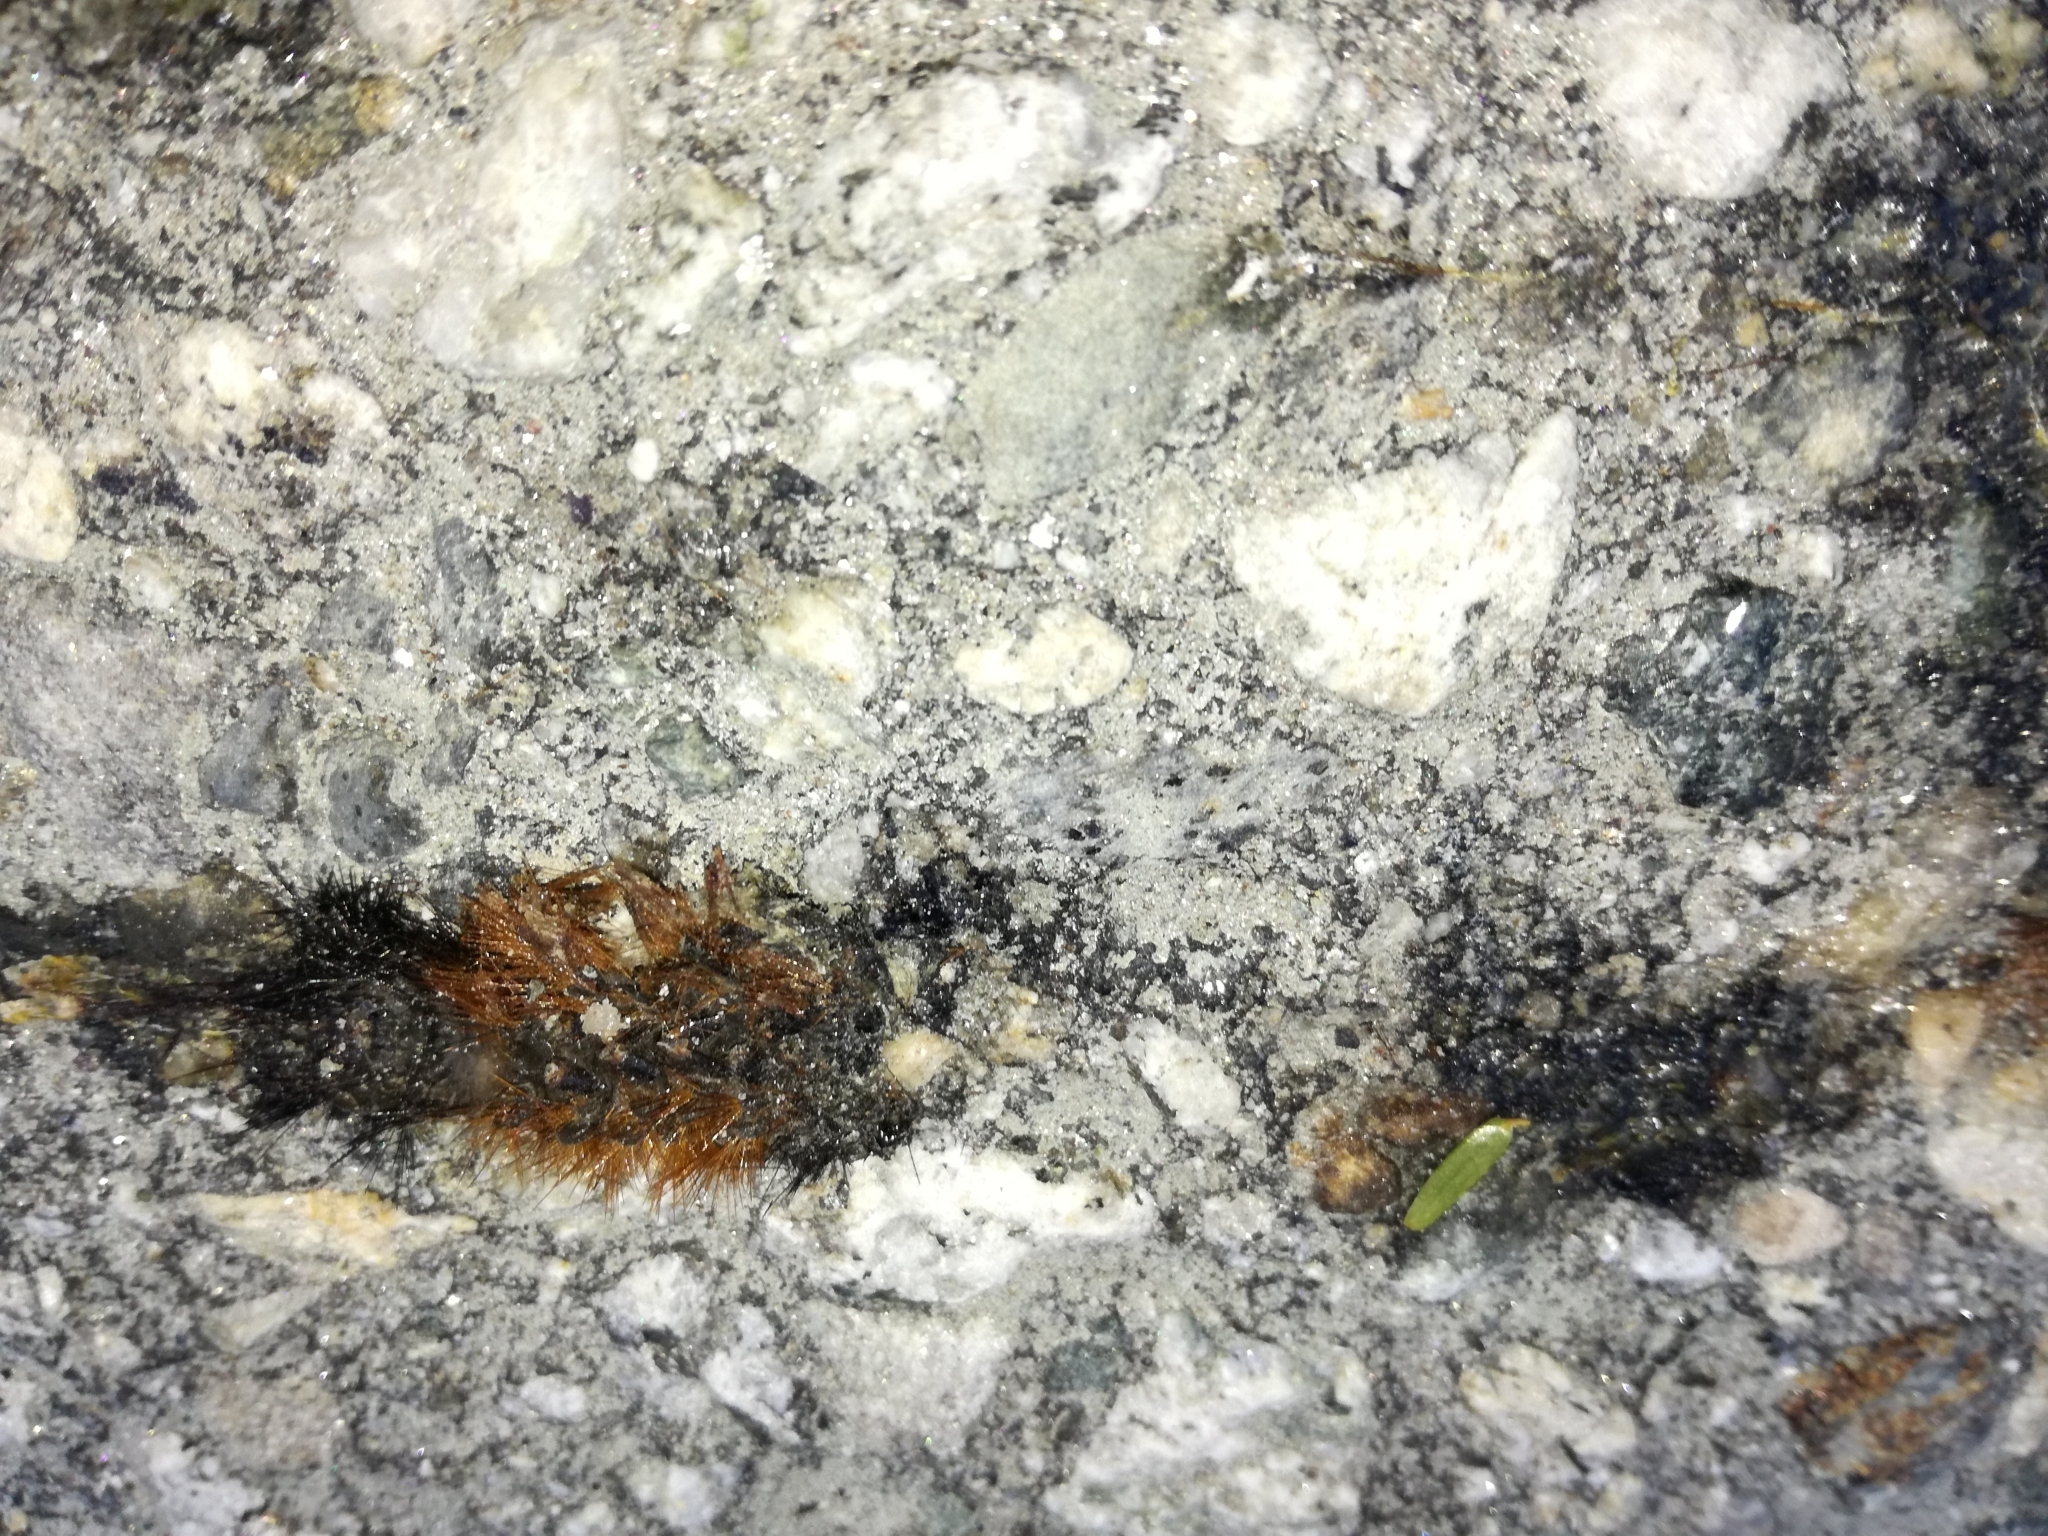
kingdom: Animalia
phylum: Arthropoda
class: Insecta
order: Lepidoptera
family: Erebidae
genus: Pyrrharctia
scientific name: Pyrrharctia isabella
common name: Isabella tiger moth
